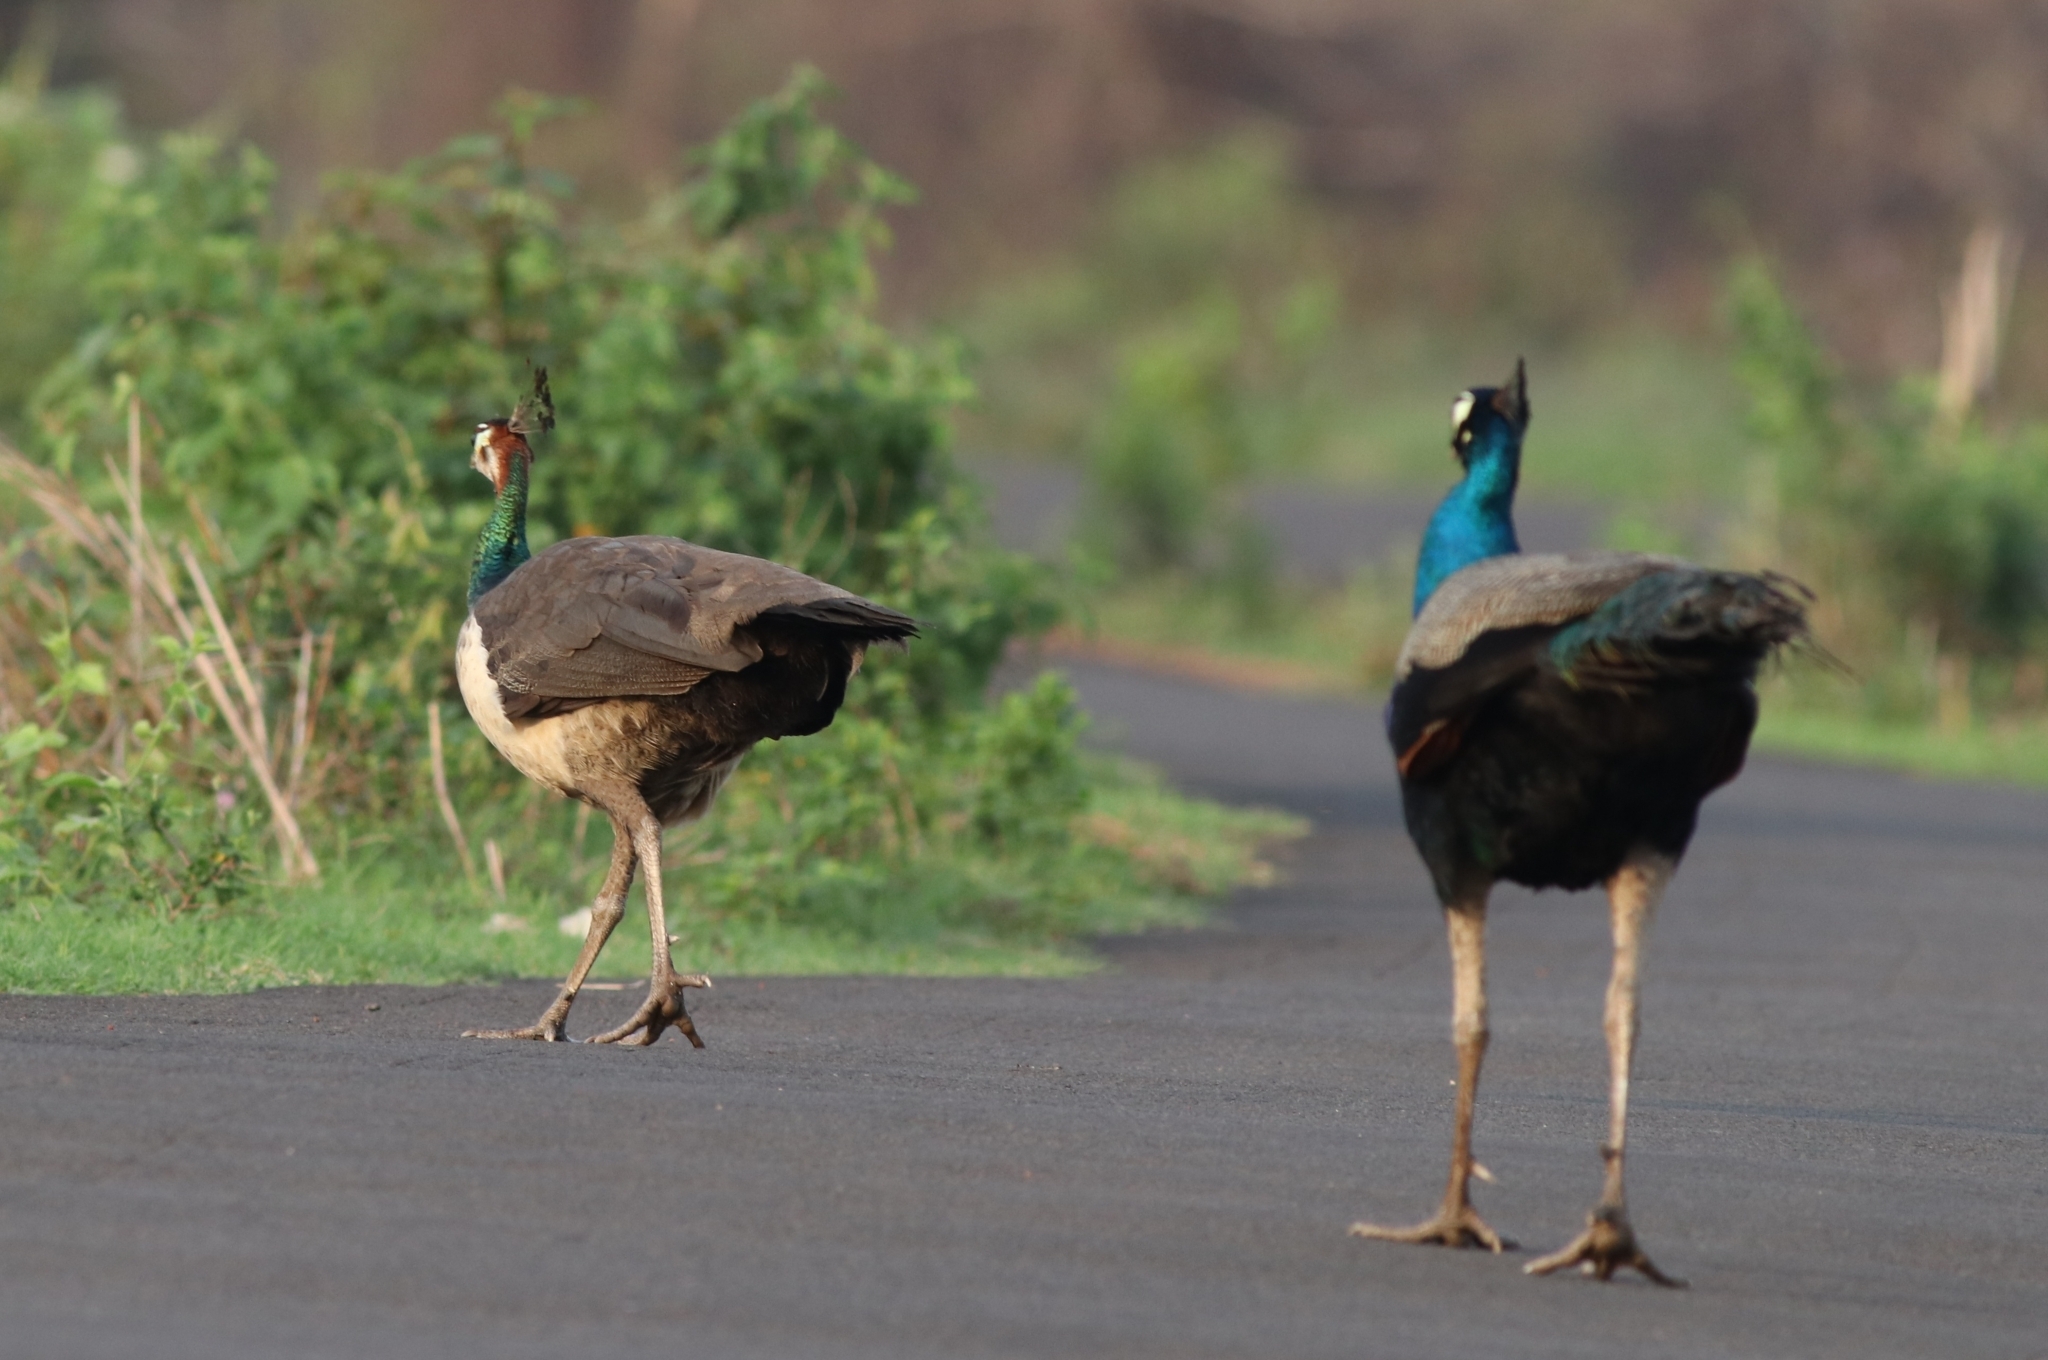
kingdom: Animalia
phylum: Chordata
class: Aves
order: Galliformes
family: Phasianidae
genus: Pavo
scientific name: Pavo cristatus
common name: Indian peafowl
